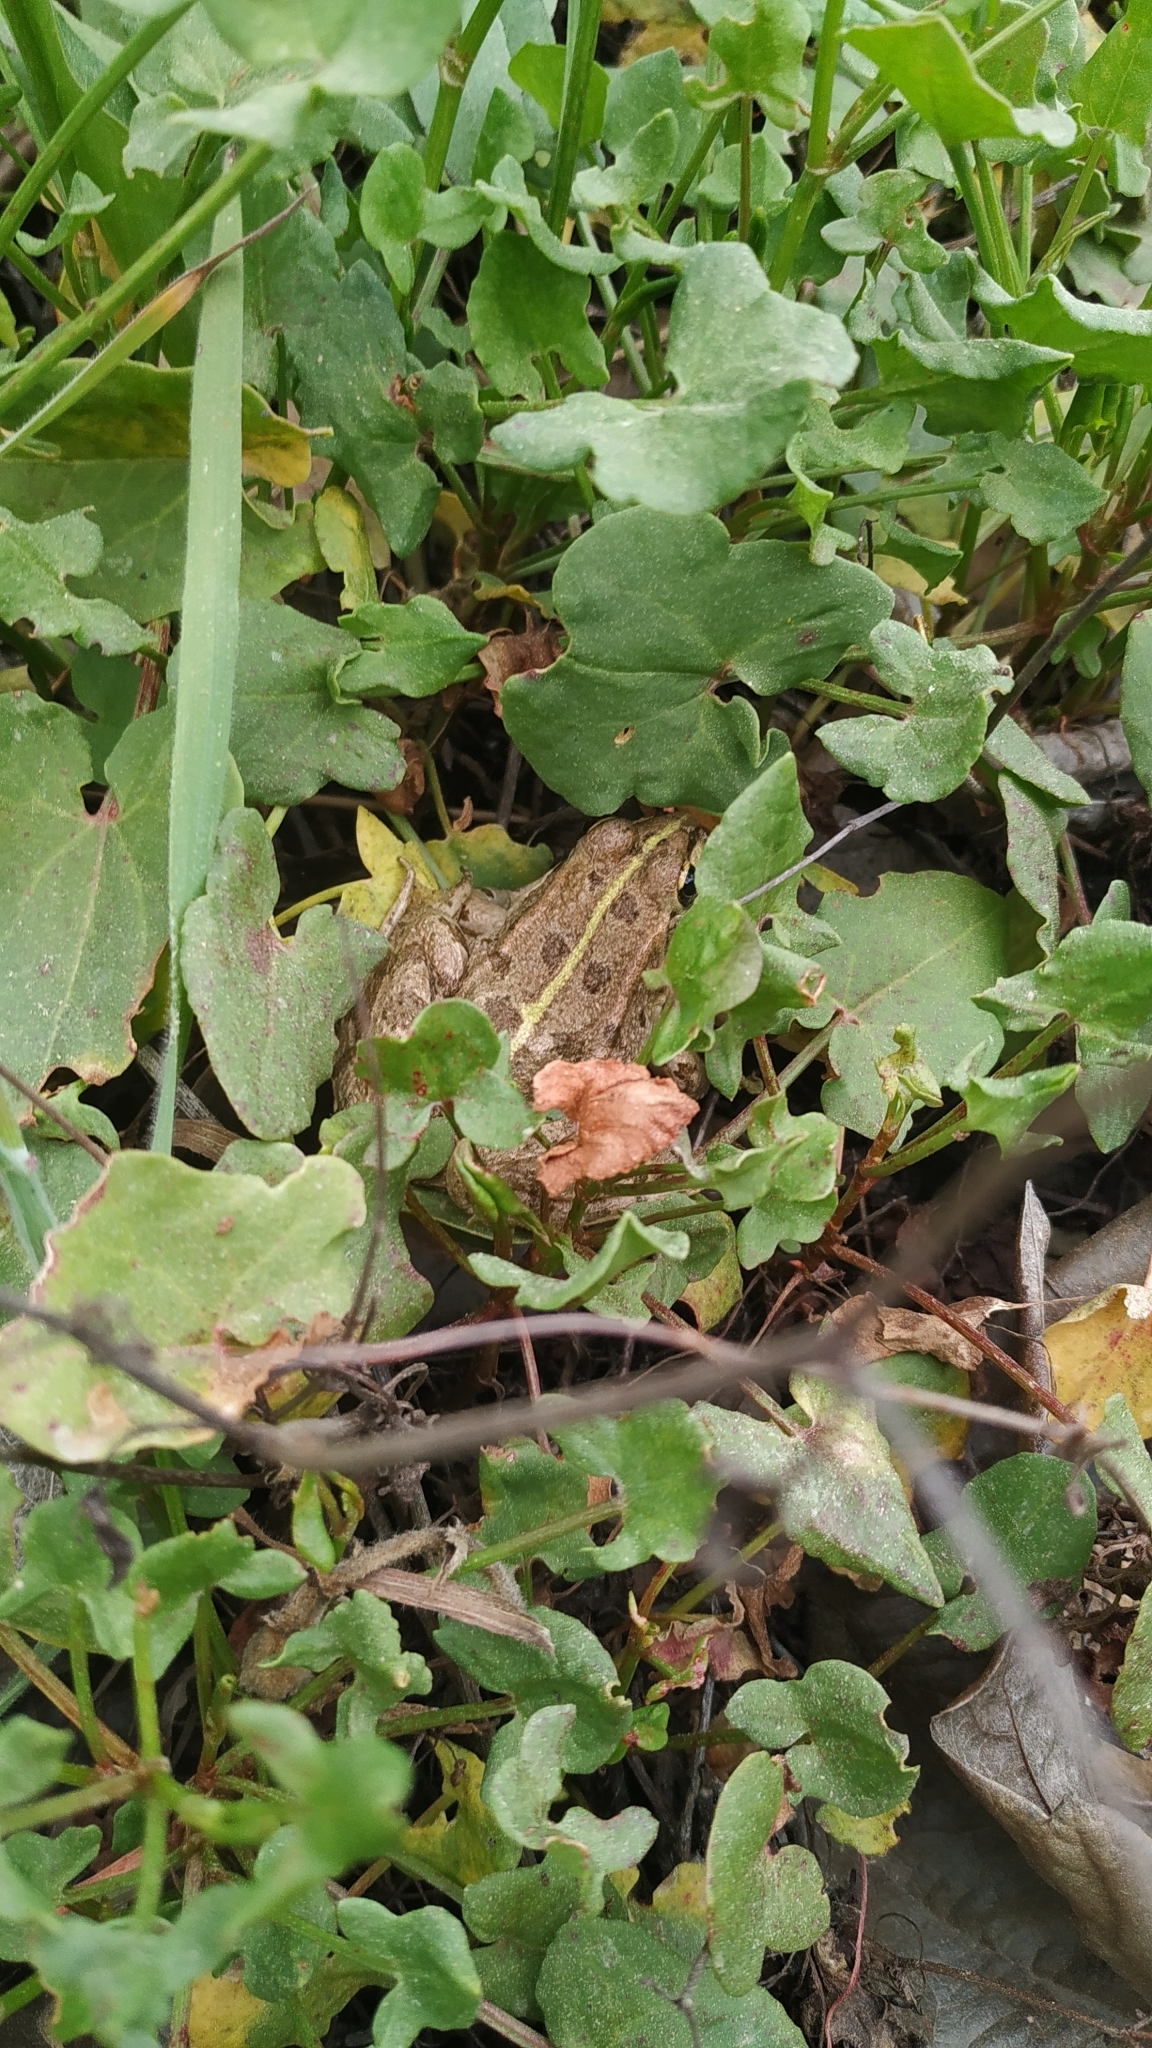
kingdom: Animalia
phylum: Chordata
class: Amphibia
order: Anura
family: Ranidae
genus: Pelophylax
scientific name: Pelophylax perezi
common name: Perez's frog
